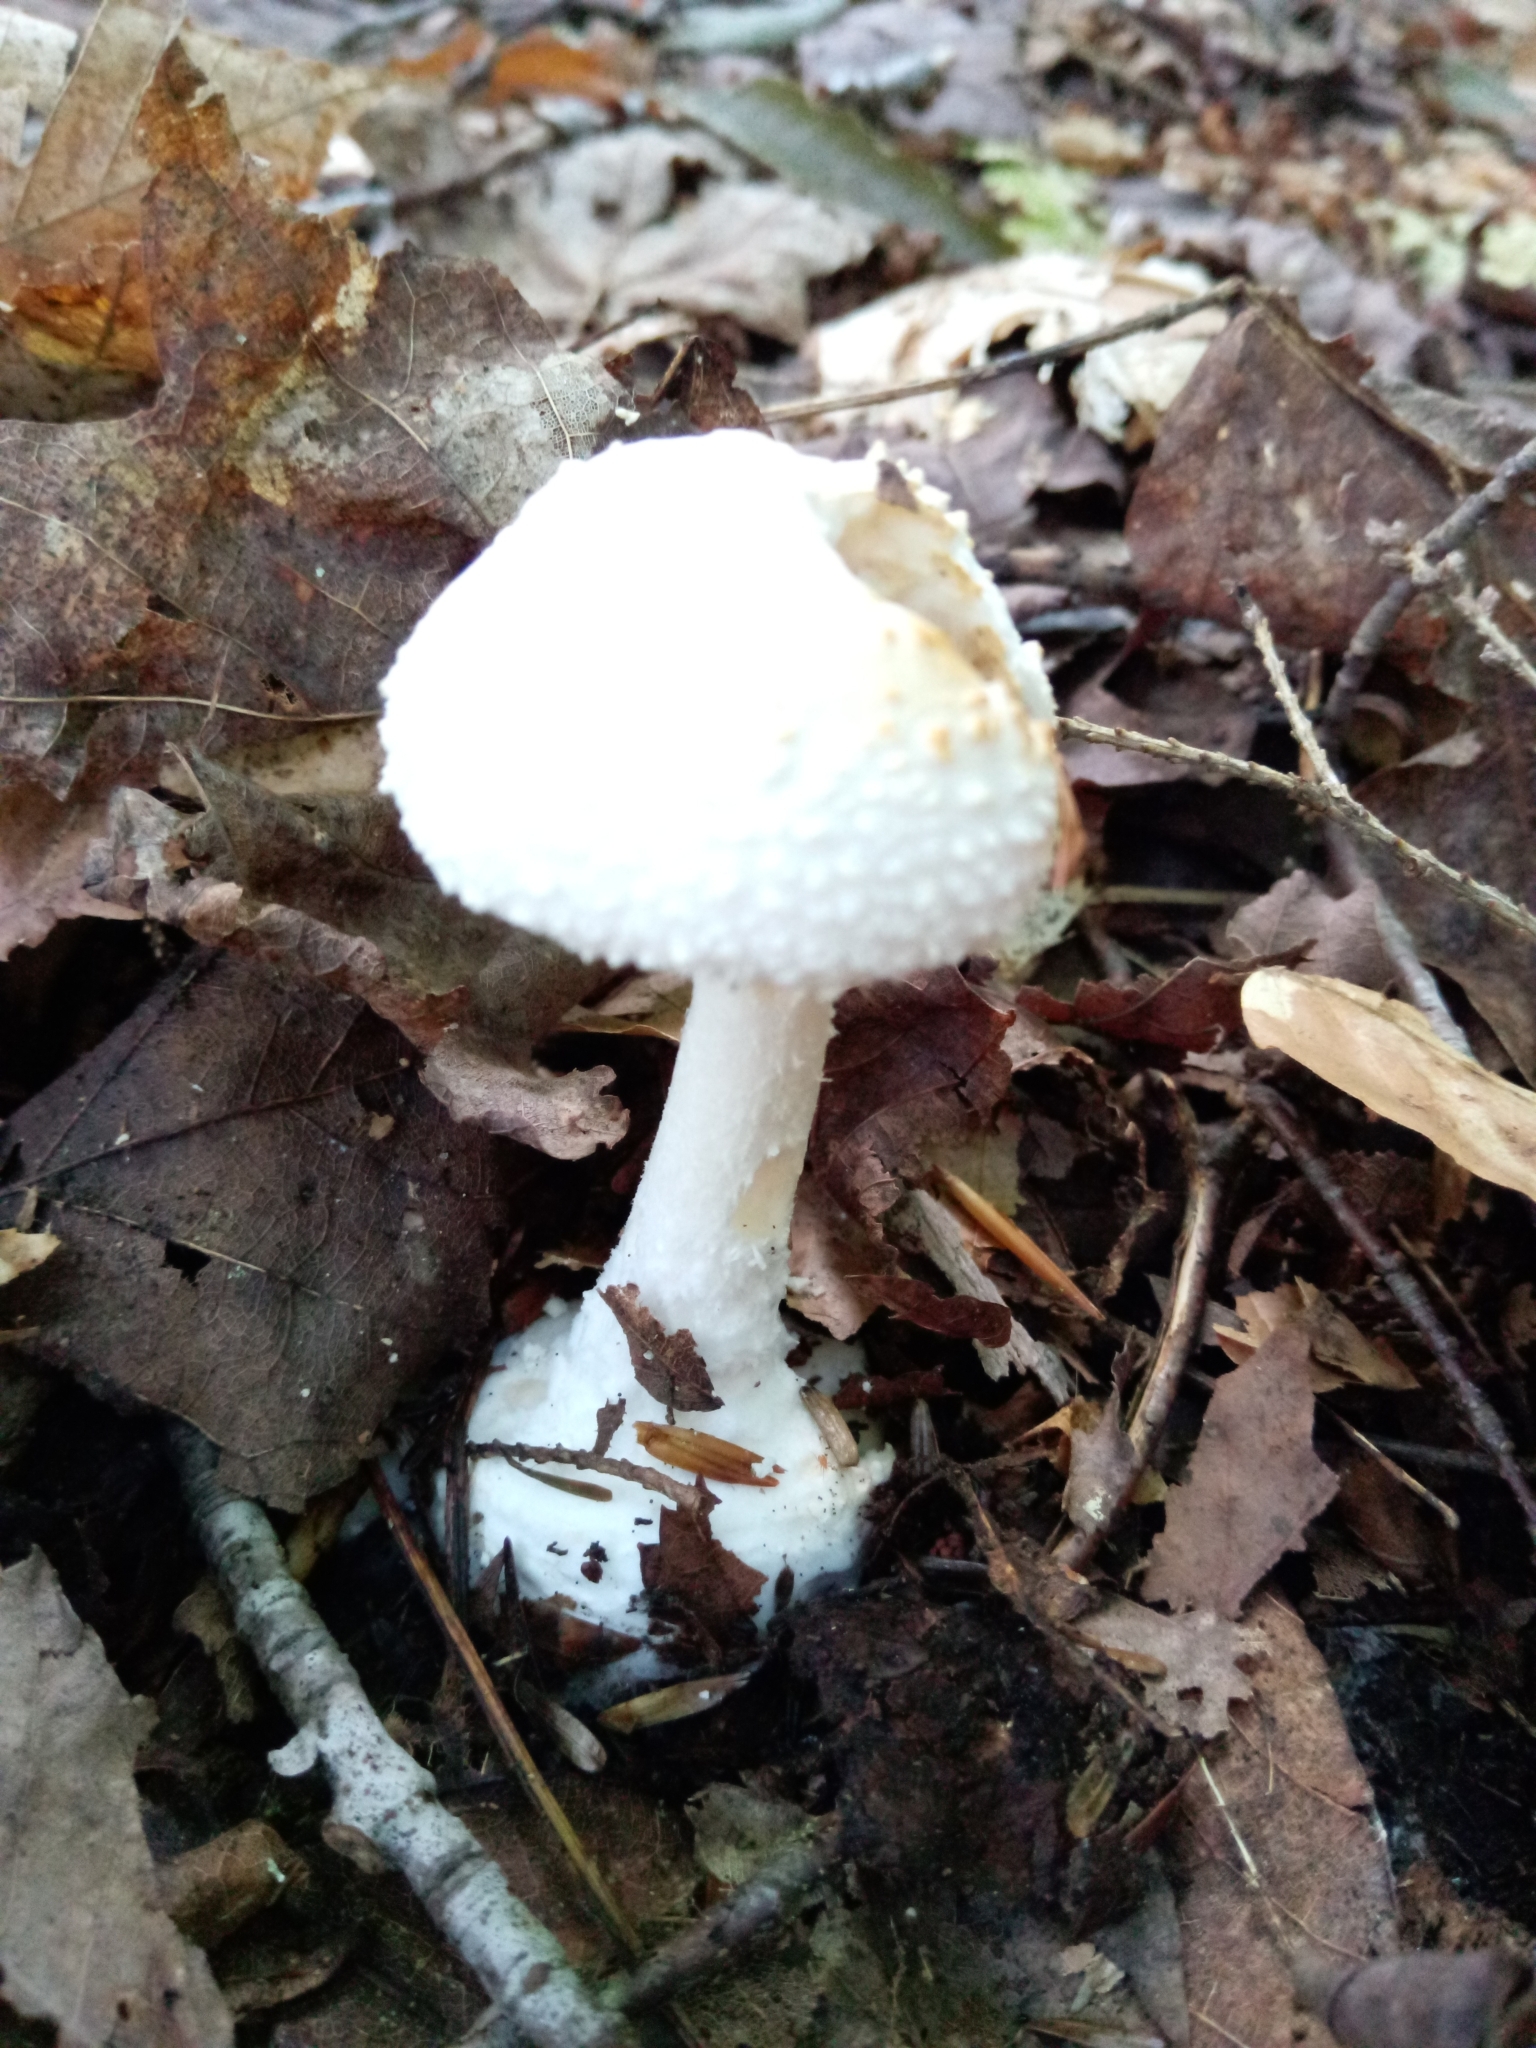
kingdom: Fungi
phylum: Basidiomycota
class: Agaricomycetes
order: Agaricales
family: Amanitaceae
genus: Amanita
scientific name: Amanita abrupta
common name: American abrupt-bulbed lepidella
